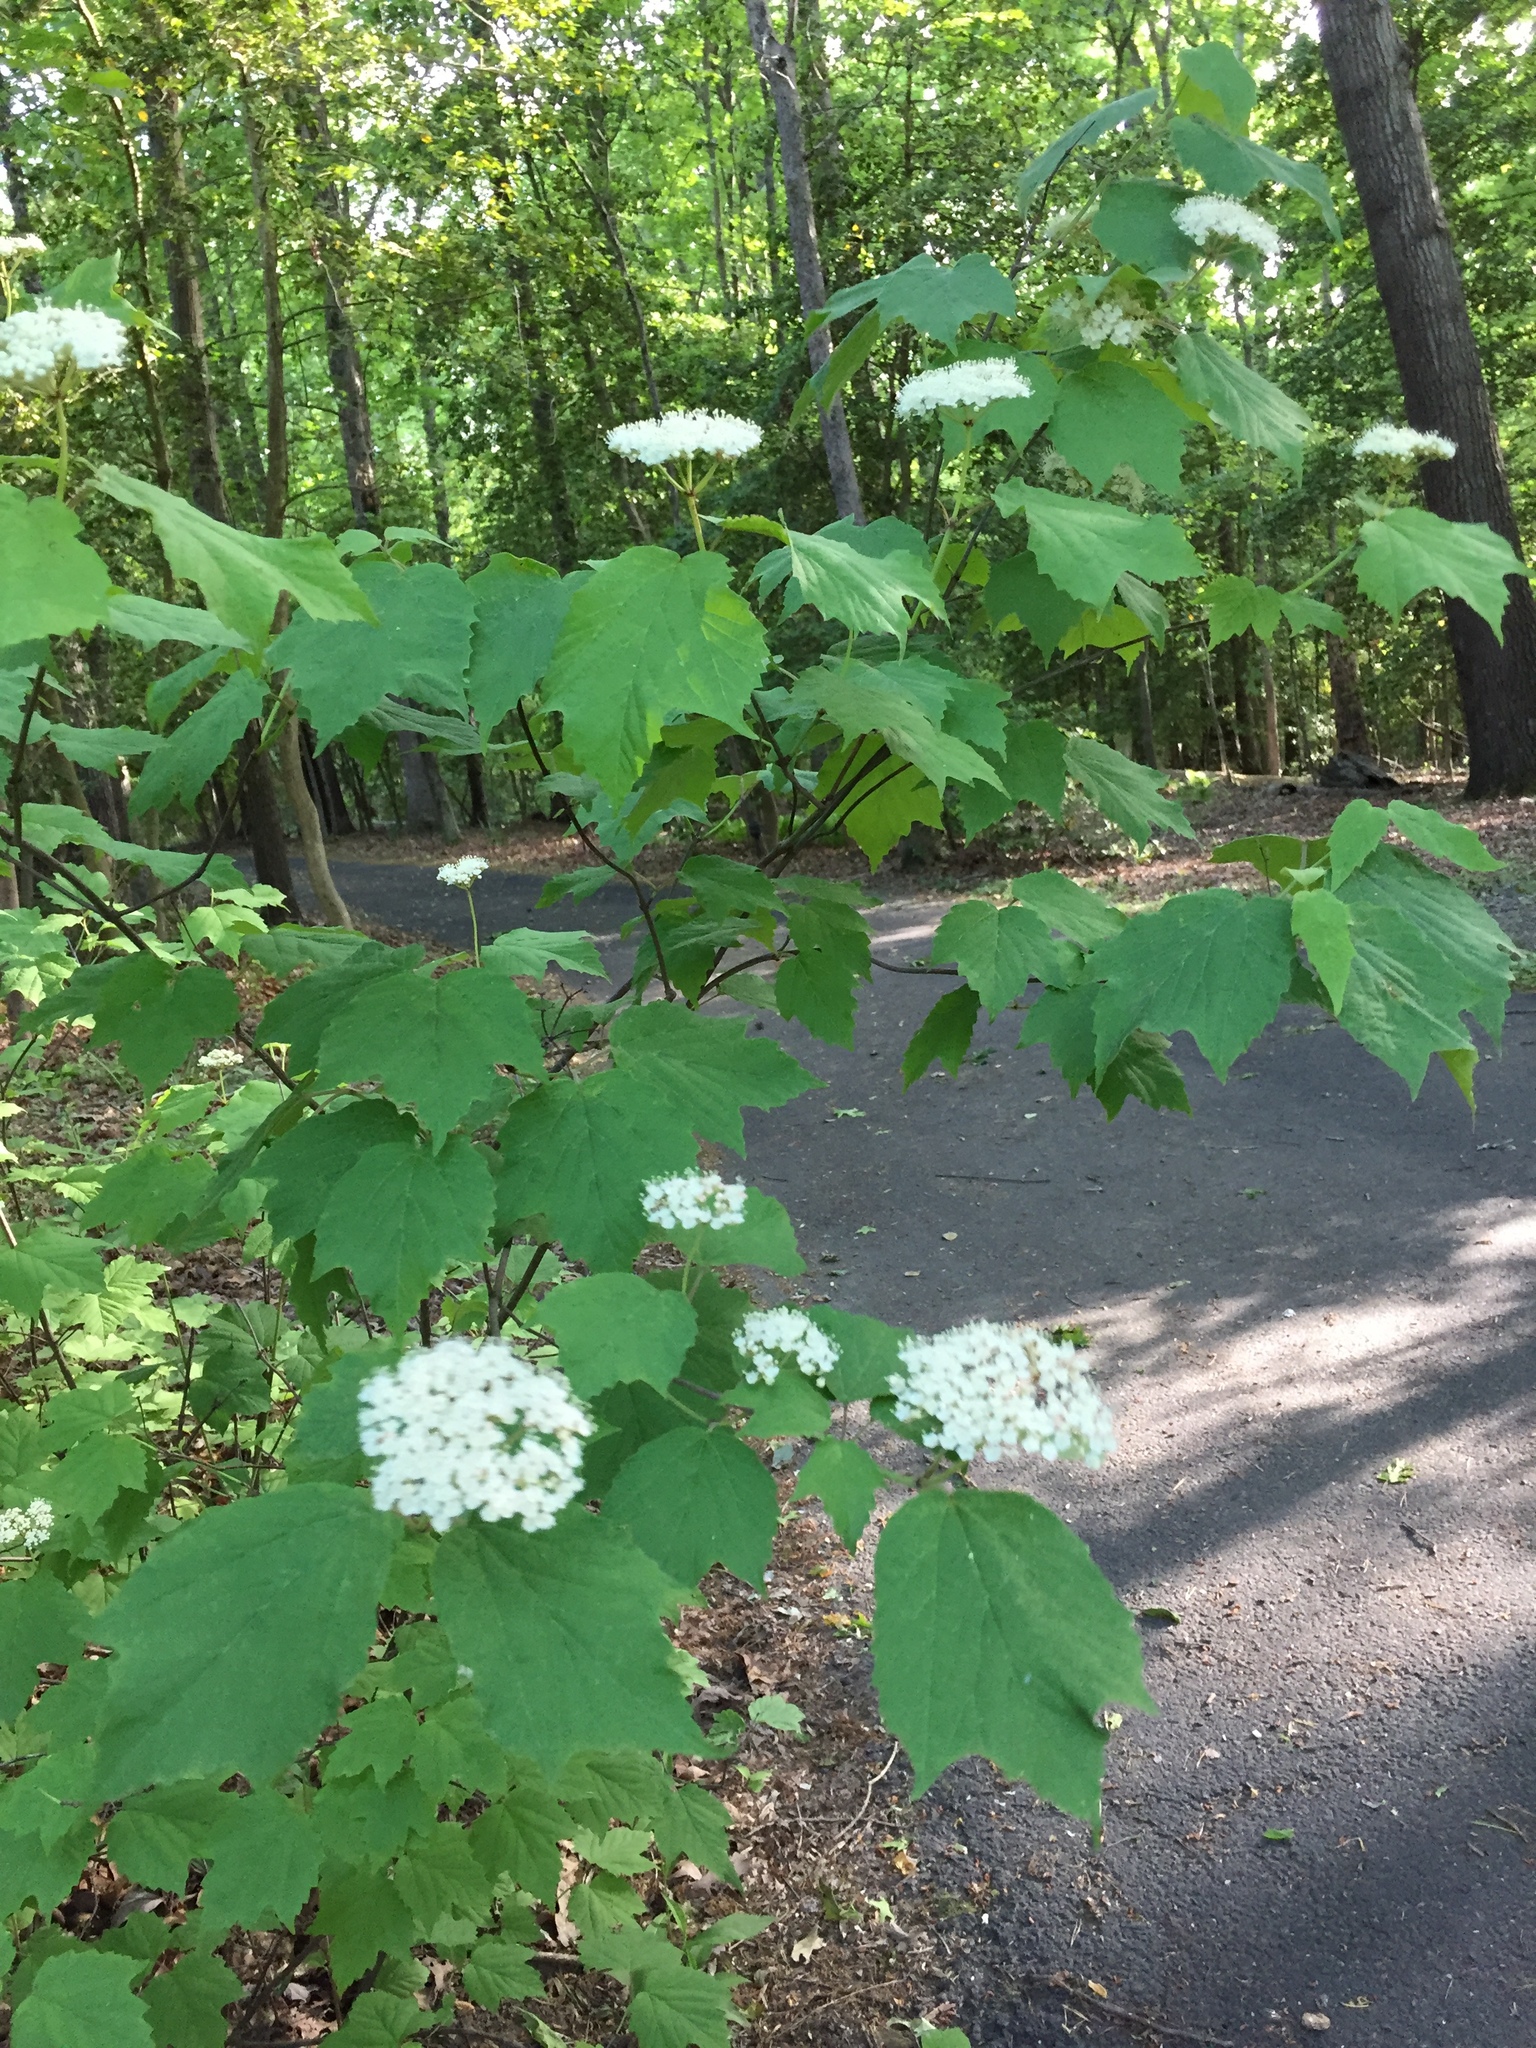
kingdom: Plantae
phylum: Tracheophyta
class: Magnoliopsida
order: Dipsacales
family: Viburnaceae
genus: Viburnum
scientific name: Viburnum acerifolium
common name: Dockmackie
